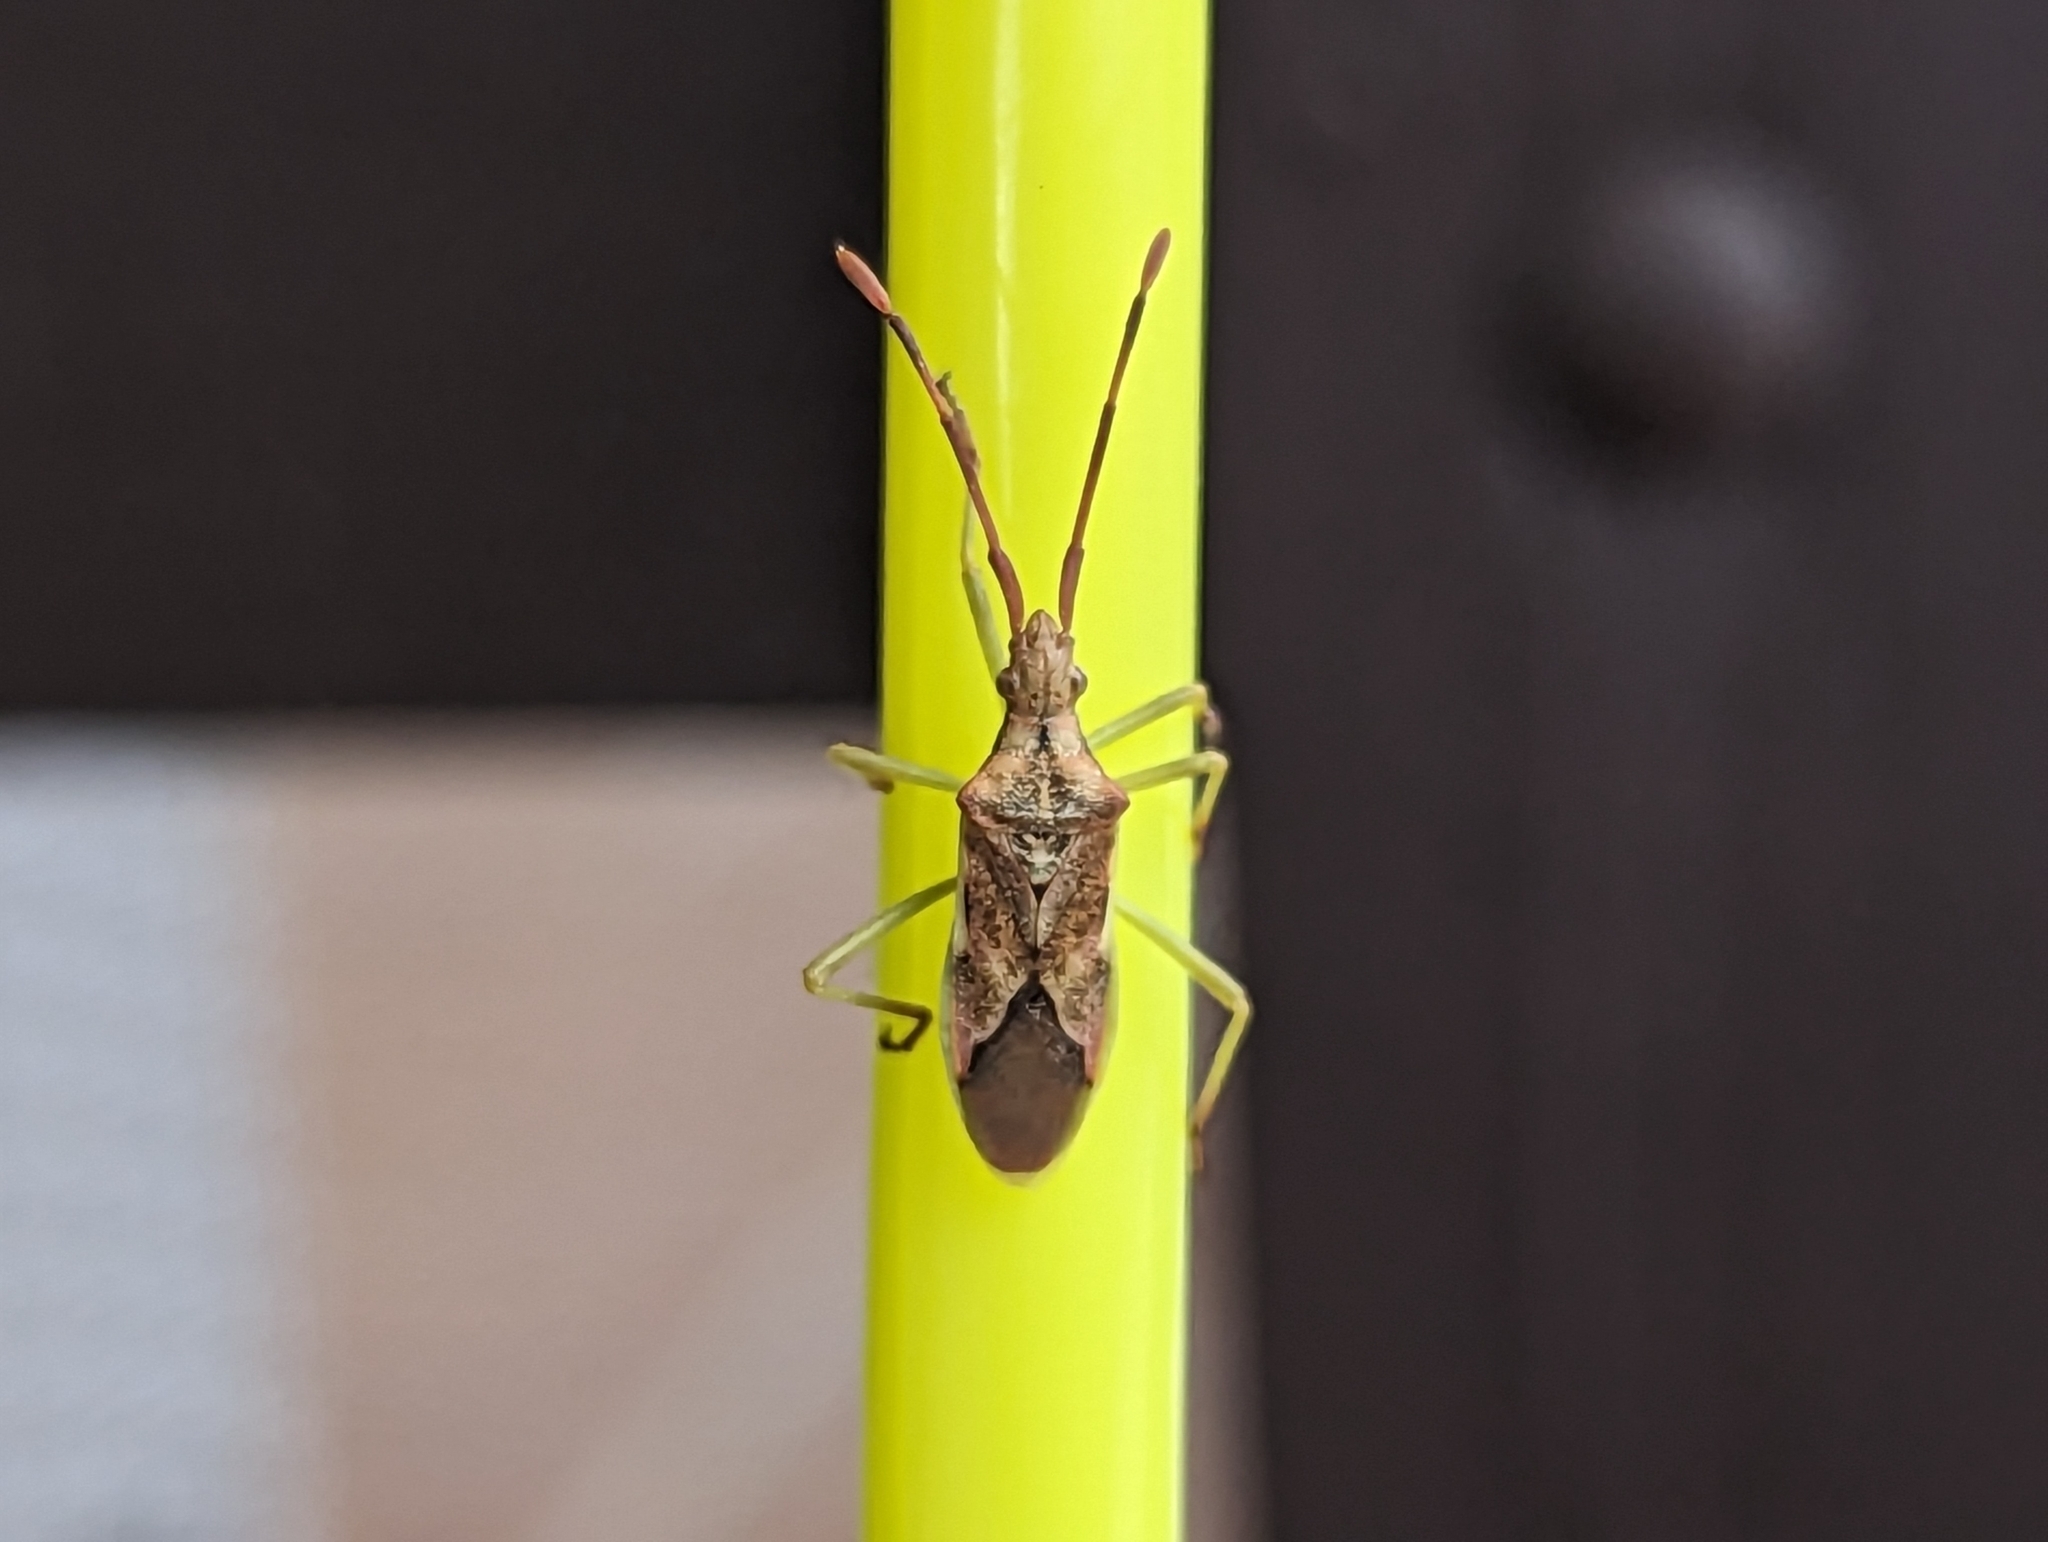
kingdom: Animalia
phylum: Arthropoda
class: Insecta
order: Hemiptera
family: Coreidae
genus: Gonocerus
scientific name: Gonocerus juniperi
